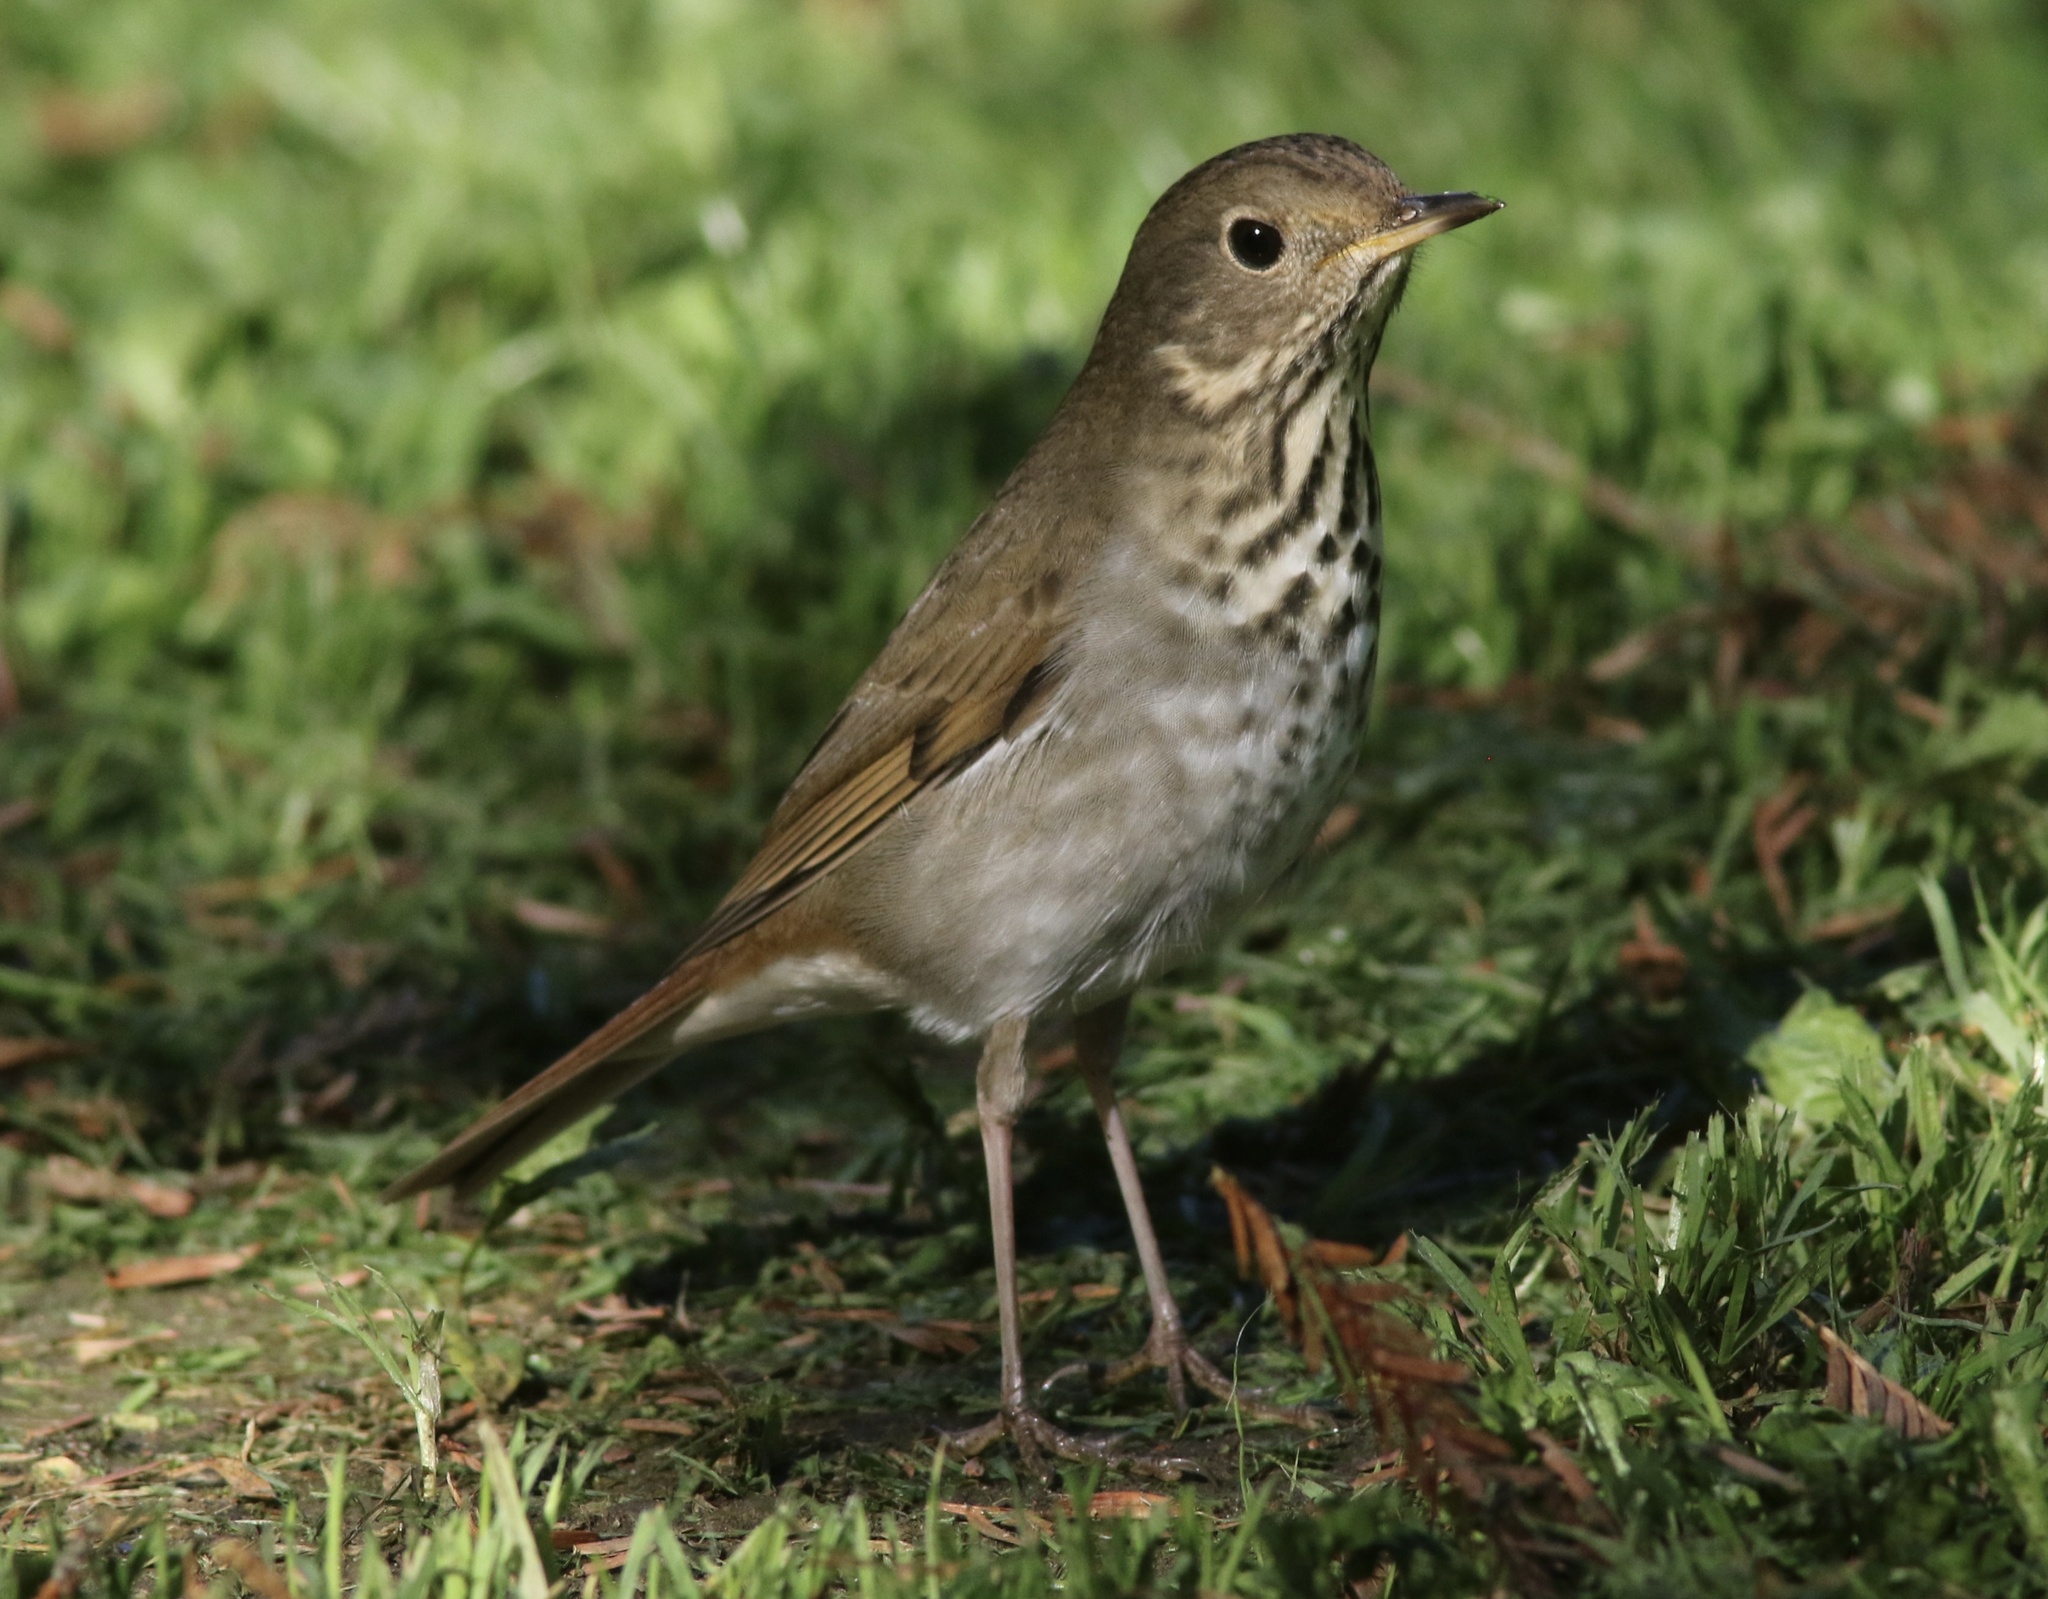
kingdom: Animalia
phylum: Chordata
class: Aves
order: Passeriformes
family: Turdidae
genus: Catharus
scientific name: Catharus guttatus
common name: Hermit thrush
